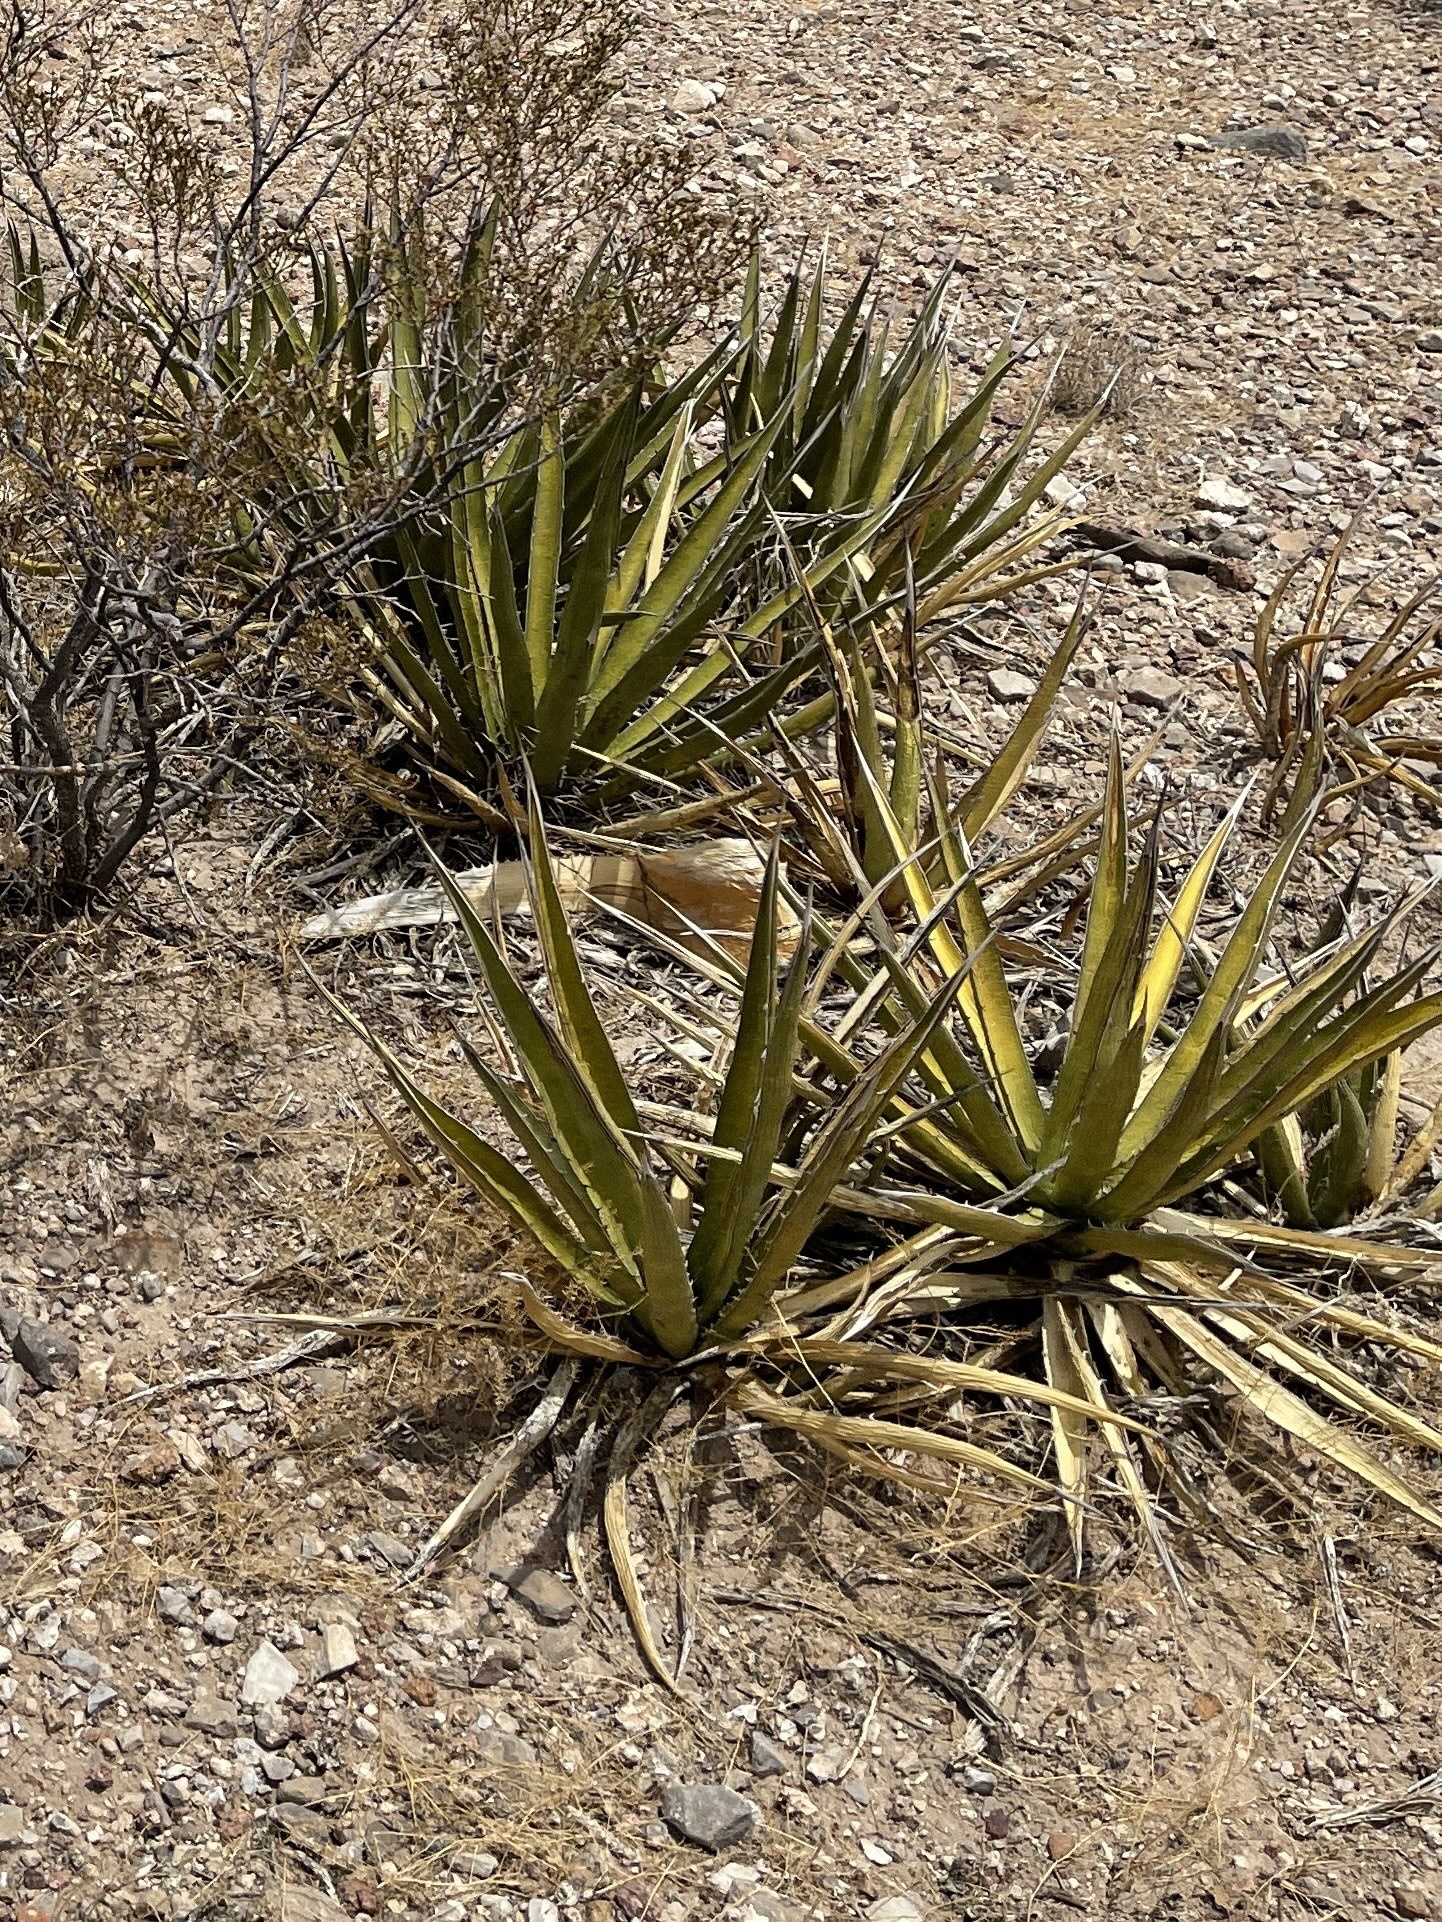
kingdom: Plantae
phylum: Tracheophyta
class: Liliopsida
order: Asparagales
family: Asparagaceae
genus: Agave
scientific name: Agave lechuguilla
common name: Lecheguilla agave
